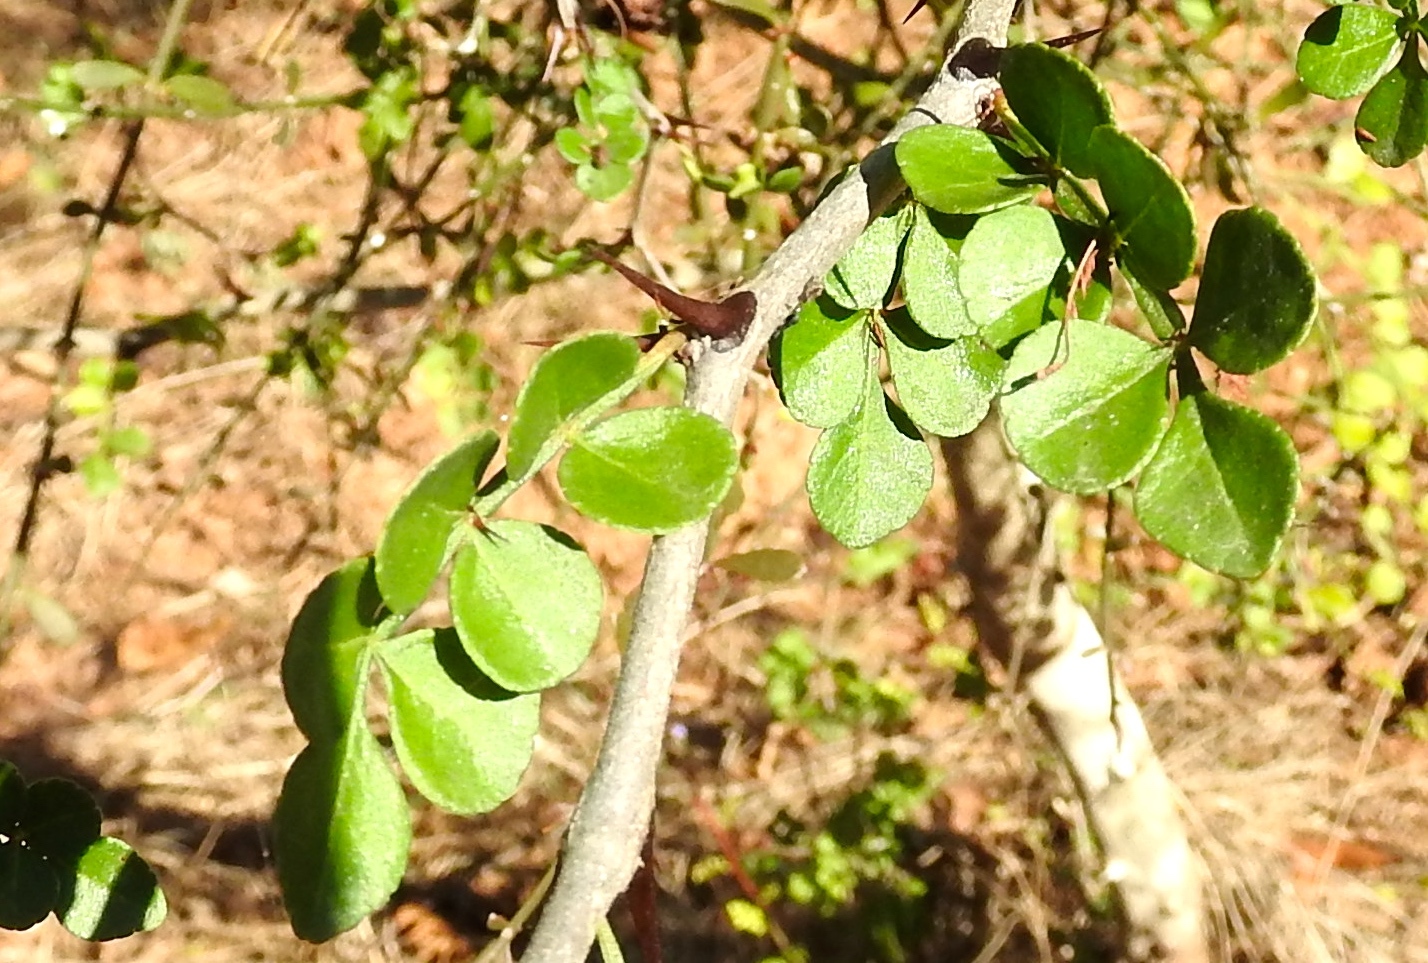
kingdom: Plantae
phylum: Tracheophyta
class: Magnoliopsida
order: Sapindales
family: Rutaceae
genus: Zanthoxylum
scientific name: Zanthoxylum fagara
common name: Lime prickly-ash
